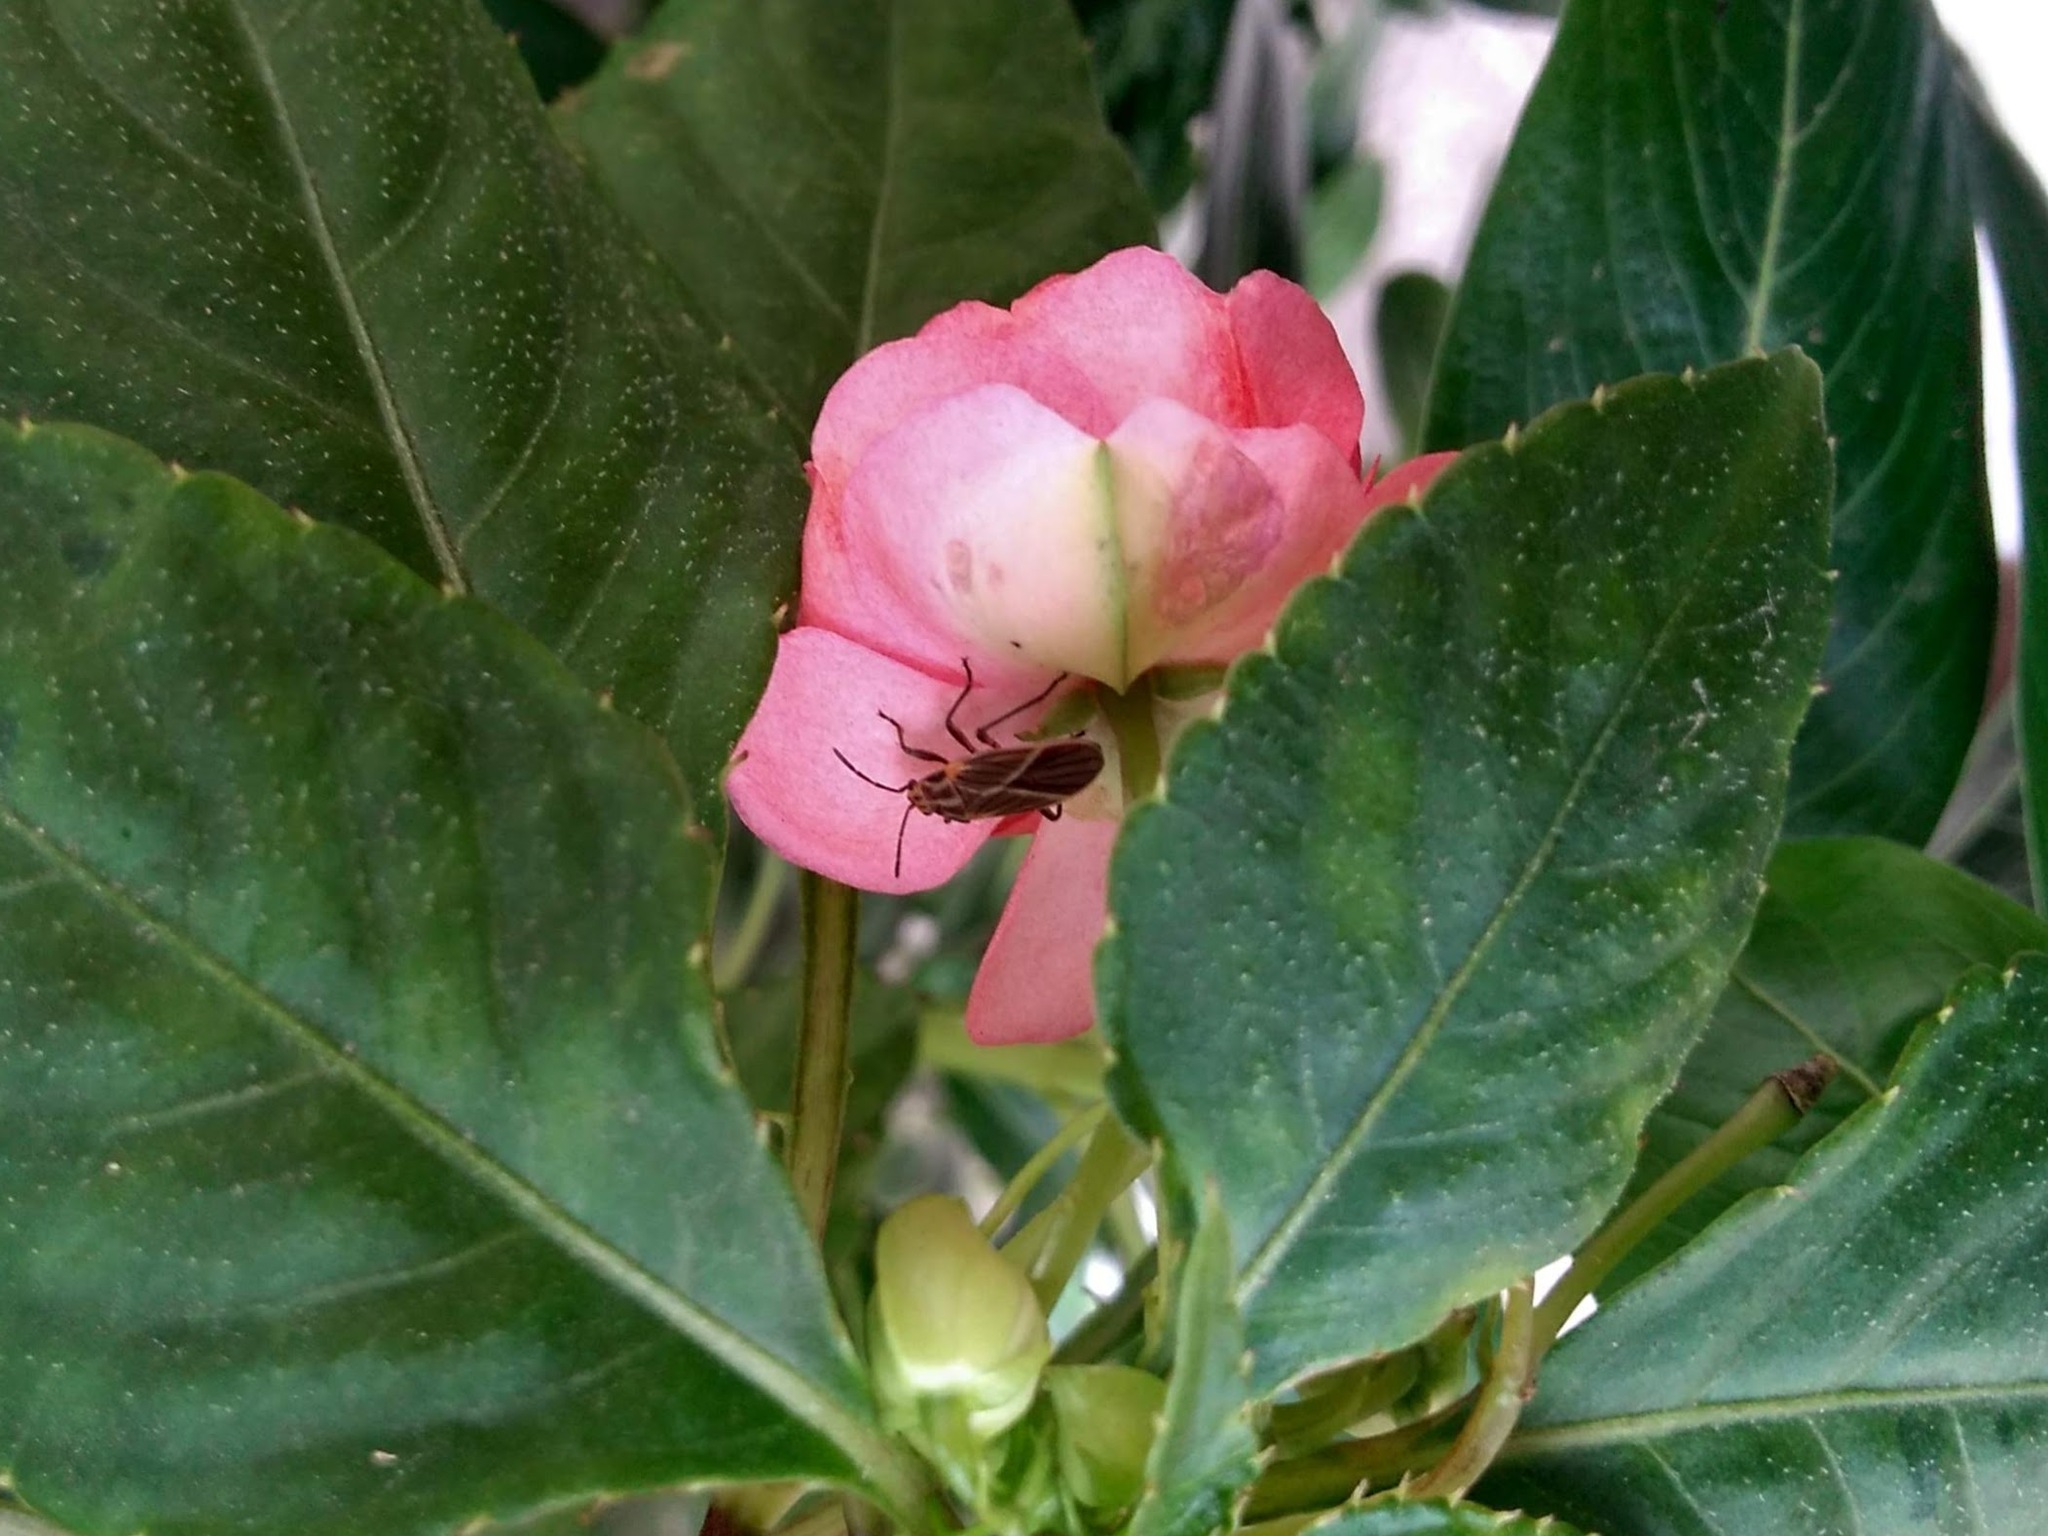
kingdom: Animalia
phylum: Arthropoda
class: Insecta
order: Hemiptera
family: Lygaeidae
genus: Torvochrimnus
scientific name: Torvochrimnus poeyi
